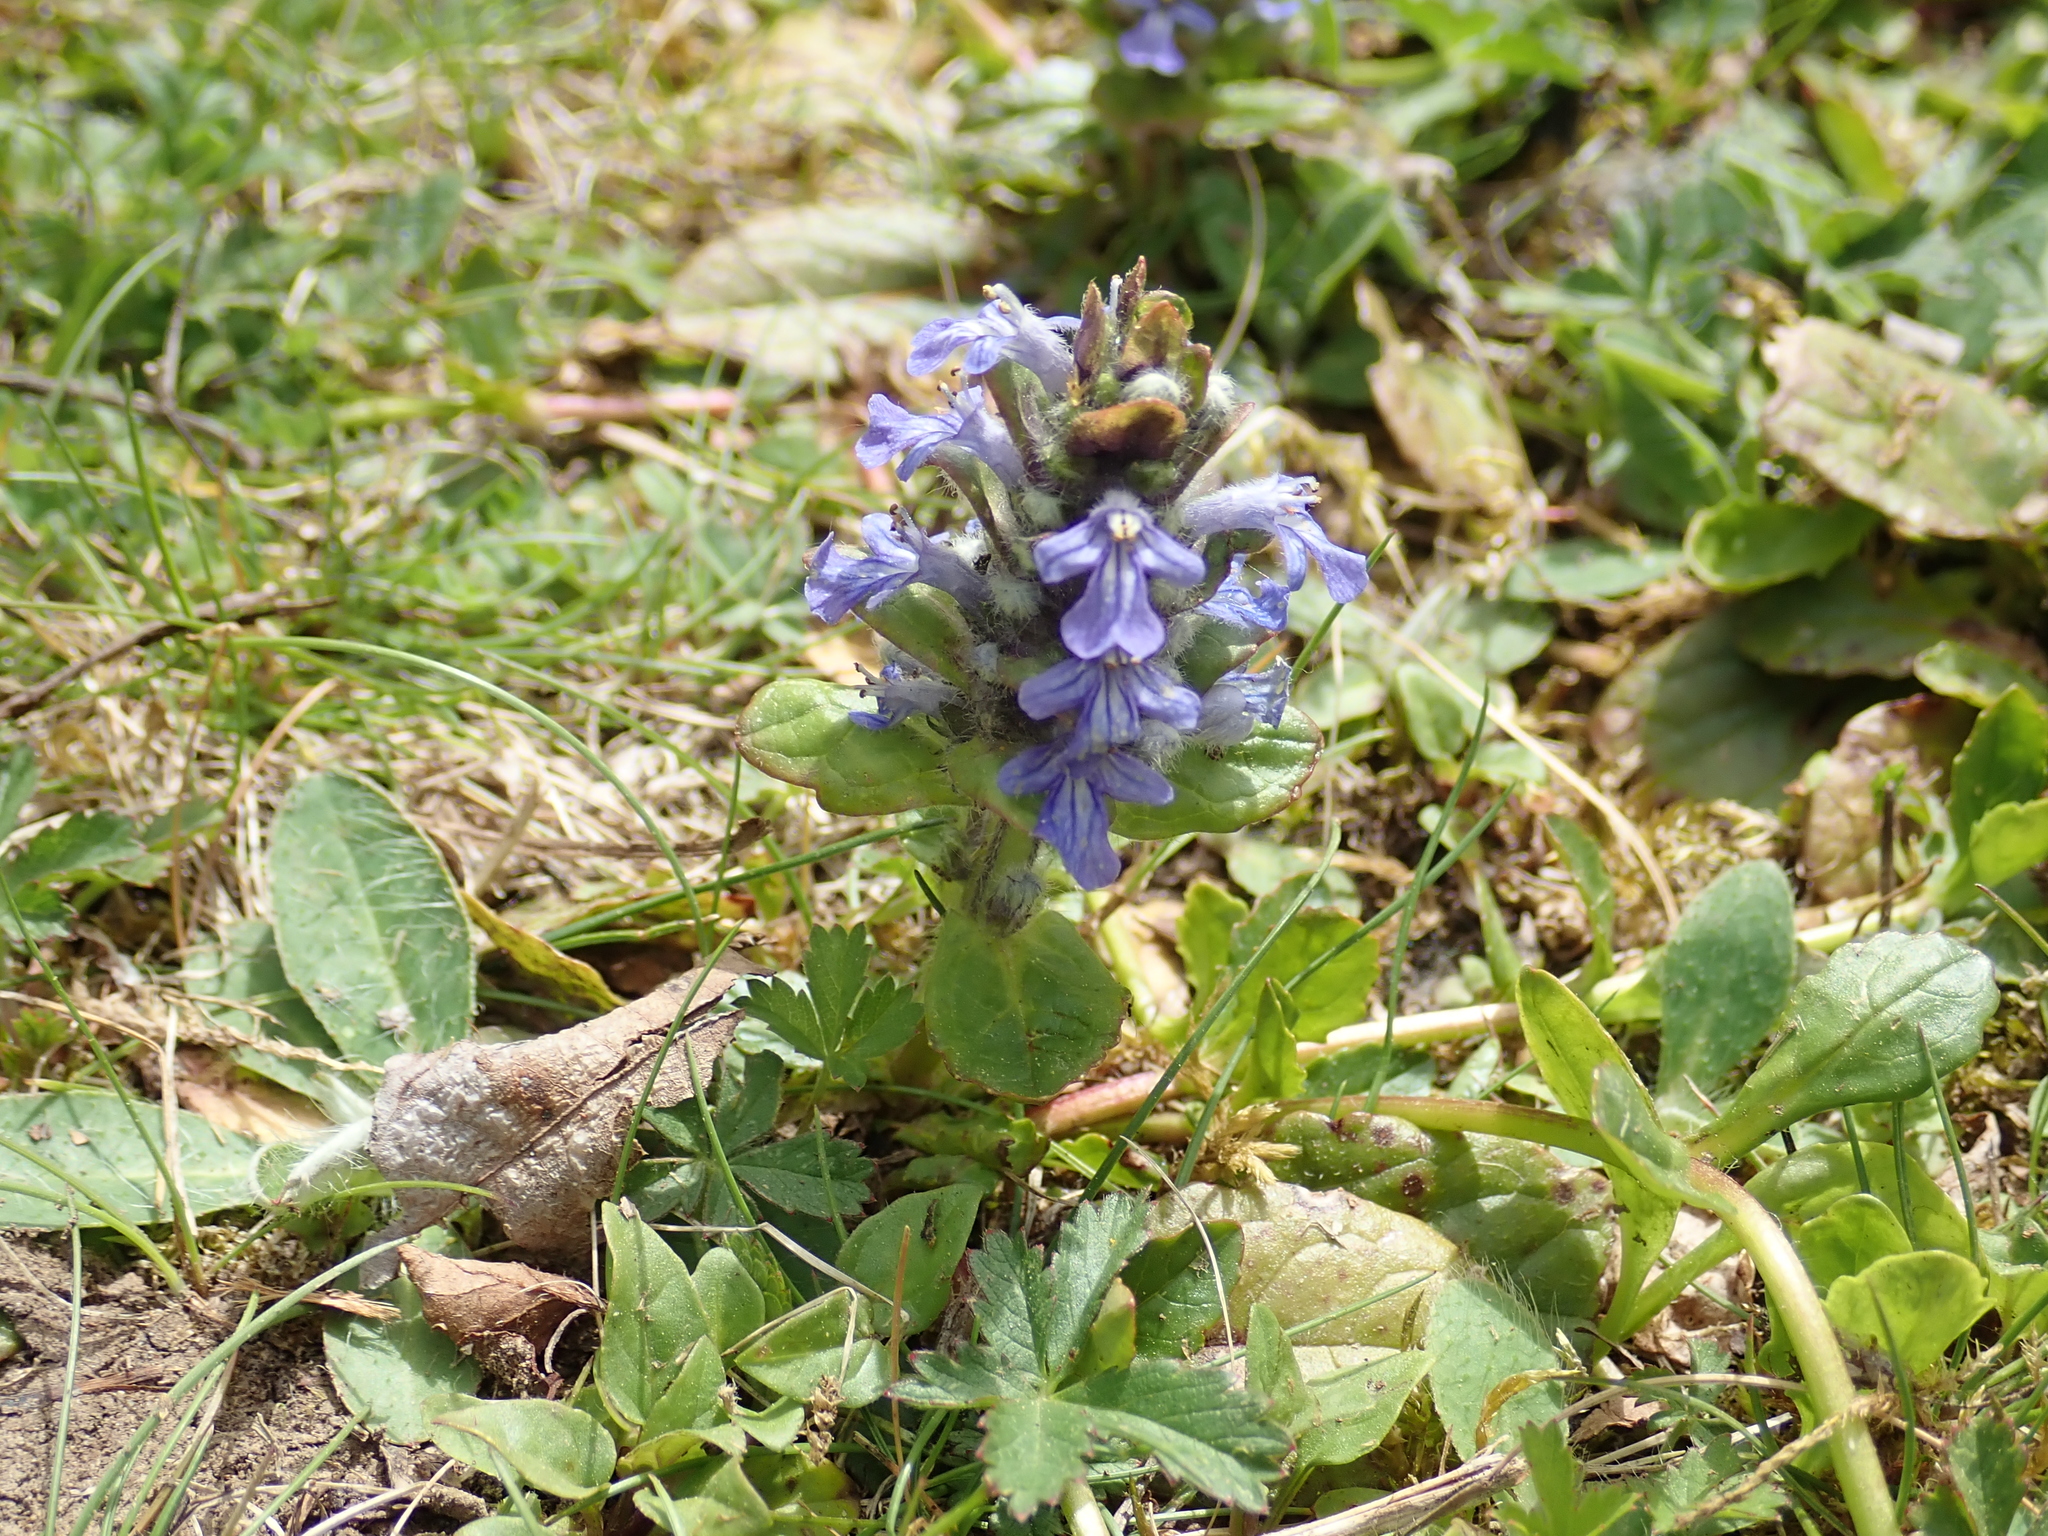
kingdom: Plantae
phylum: Tracheophyta
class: Magnoliopsida
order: Lamiales
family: Lamiaceae
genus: Ajuga
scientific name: Ajuga reptans
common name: Bugle
